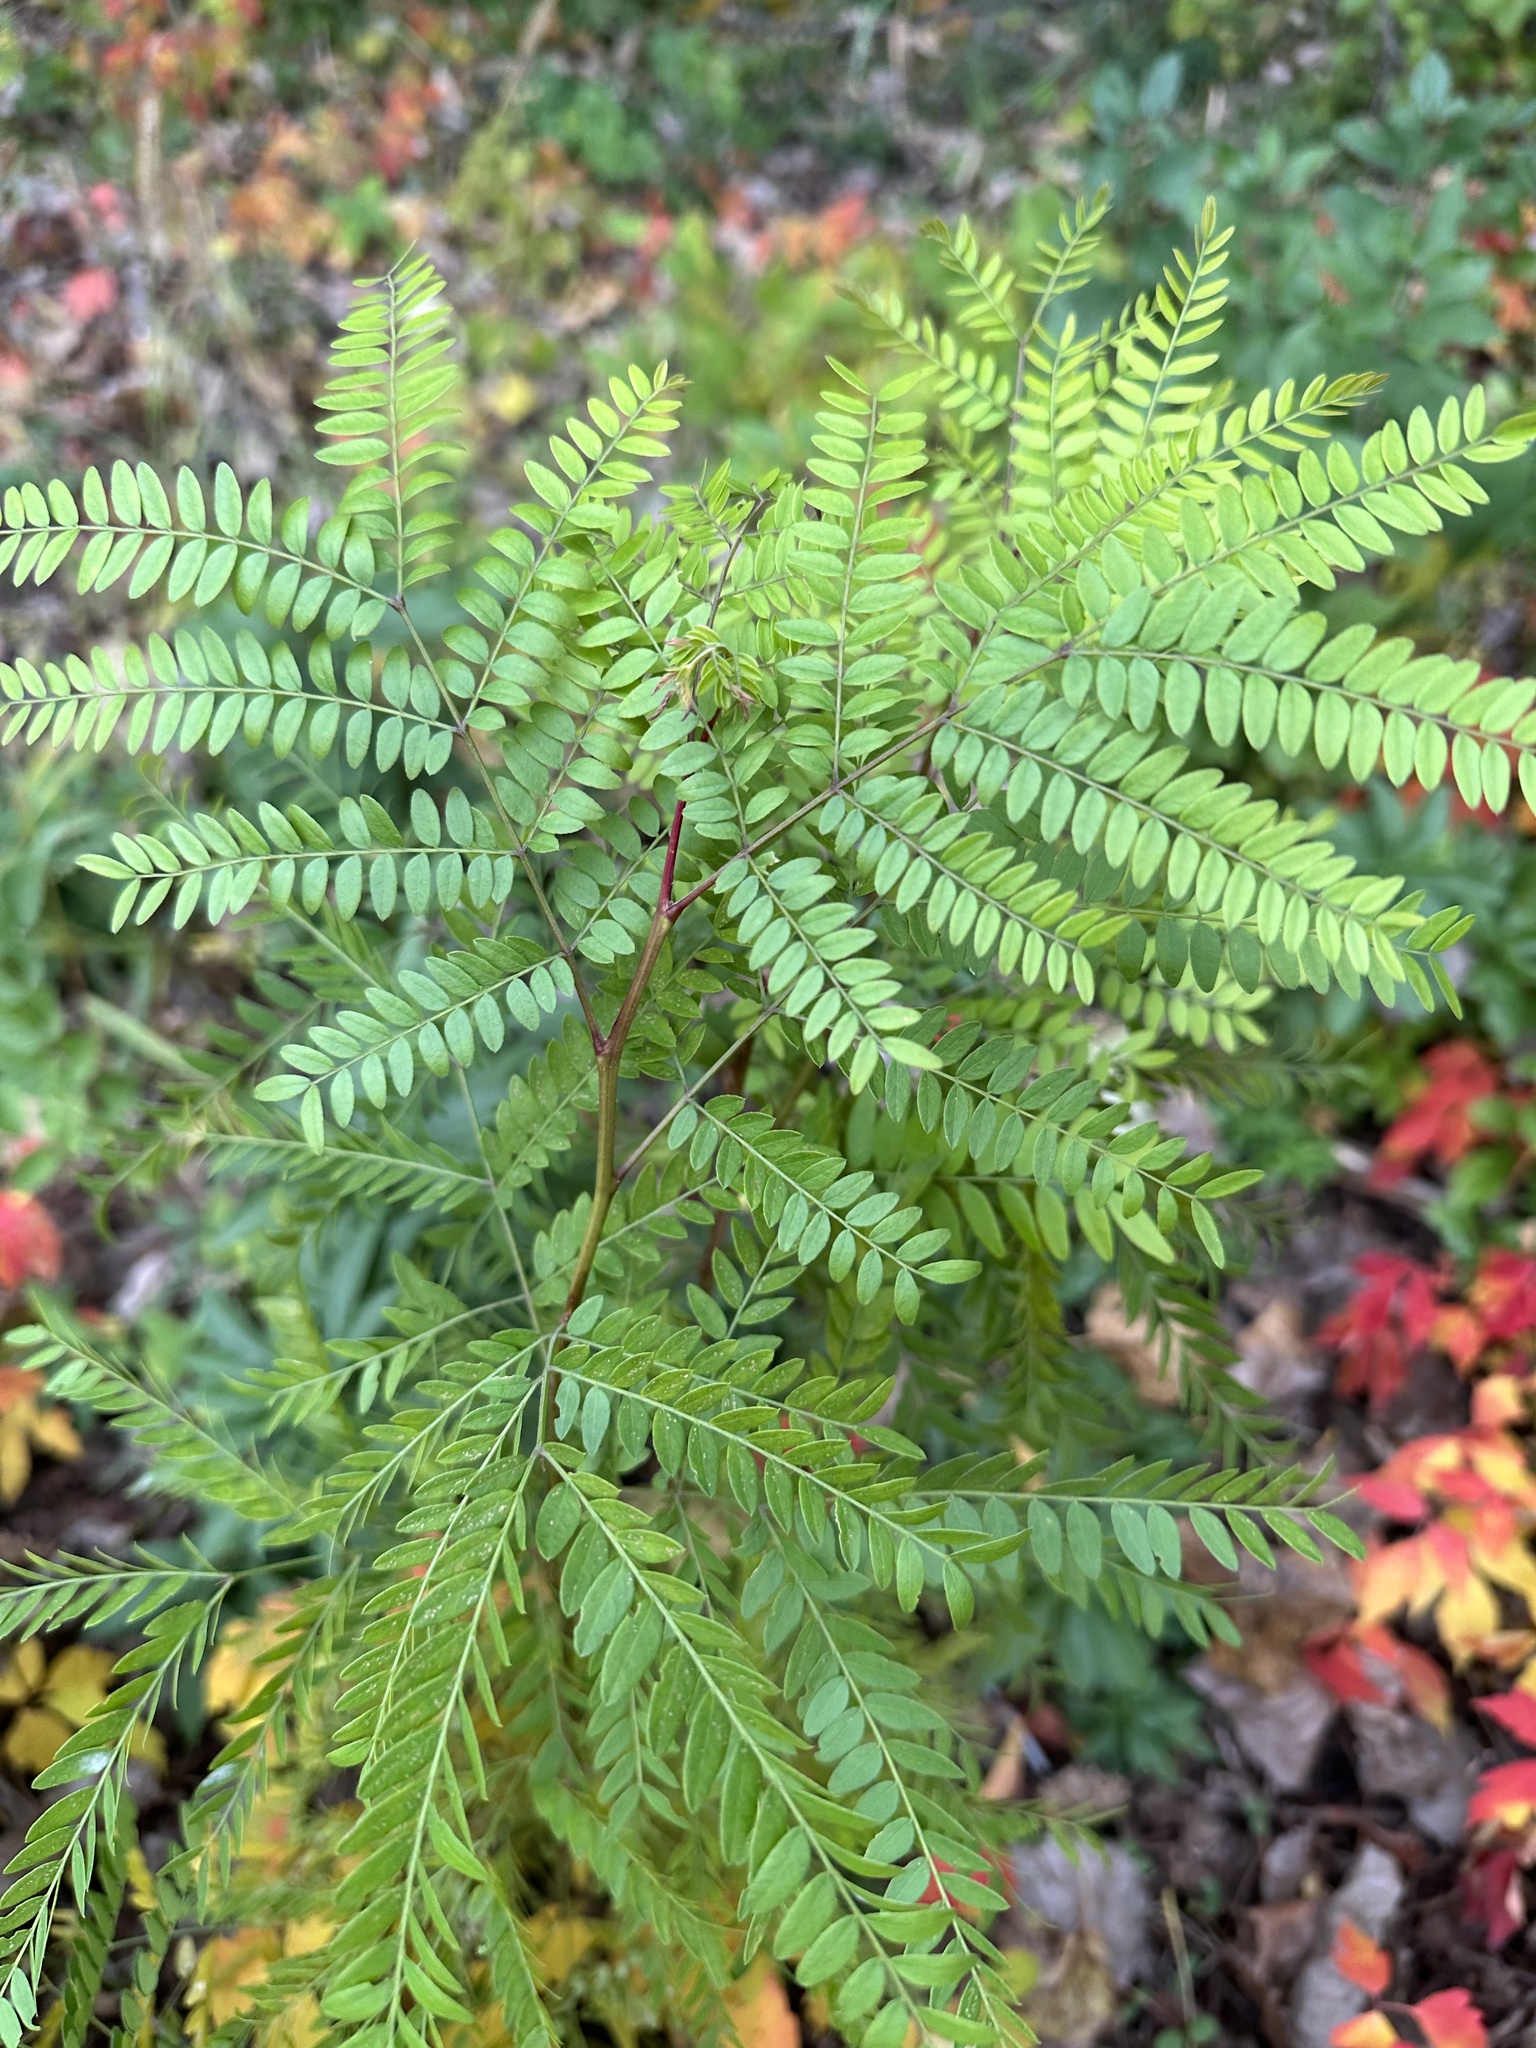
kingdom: Plantae
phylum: Tracheophyta
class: Magnoliopsida
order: Fabales
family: Fabaceae
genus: Gleditsia
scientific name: Gleditsia triacanthos
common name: Common honeylocust
